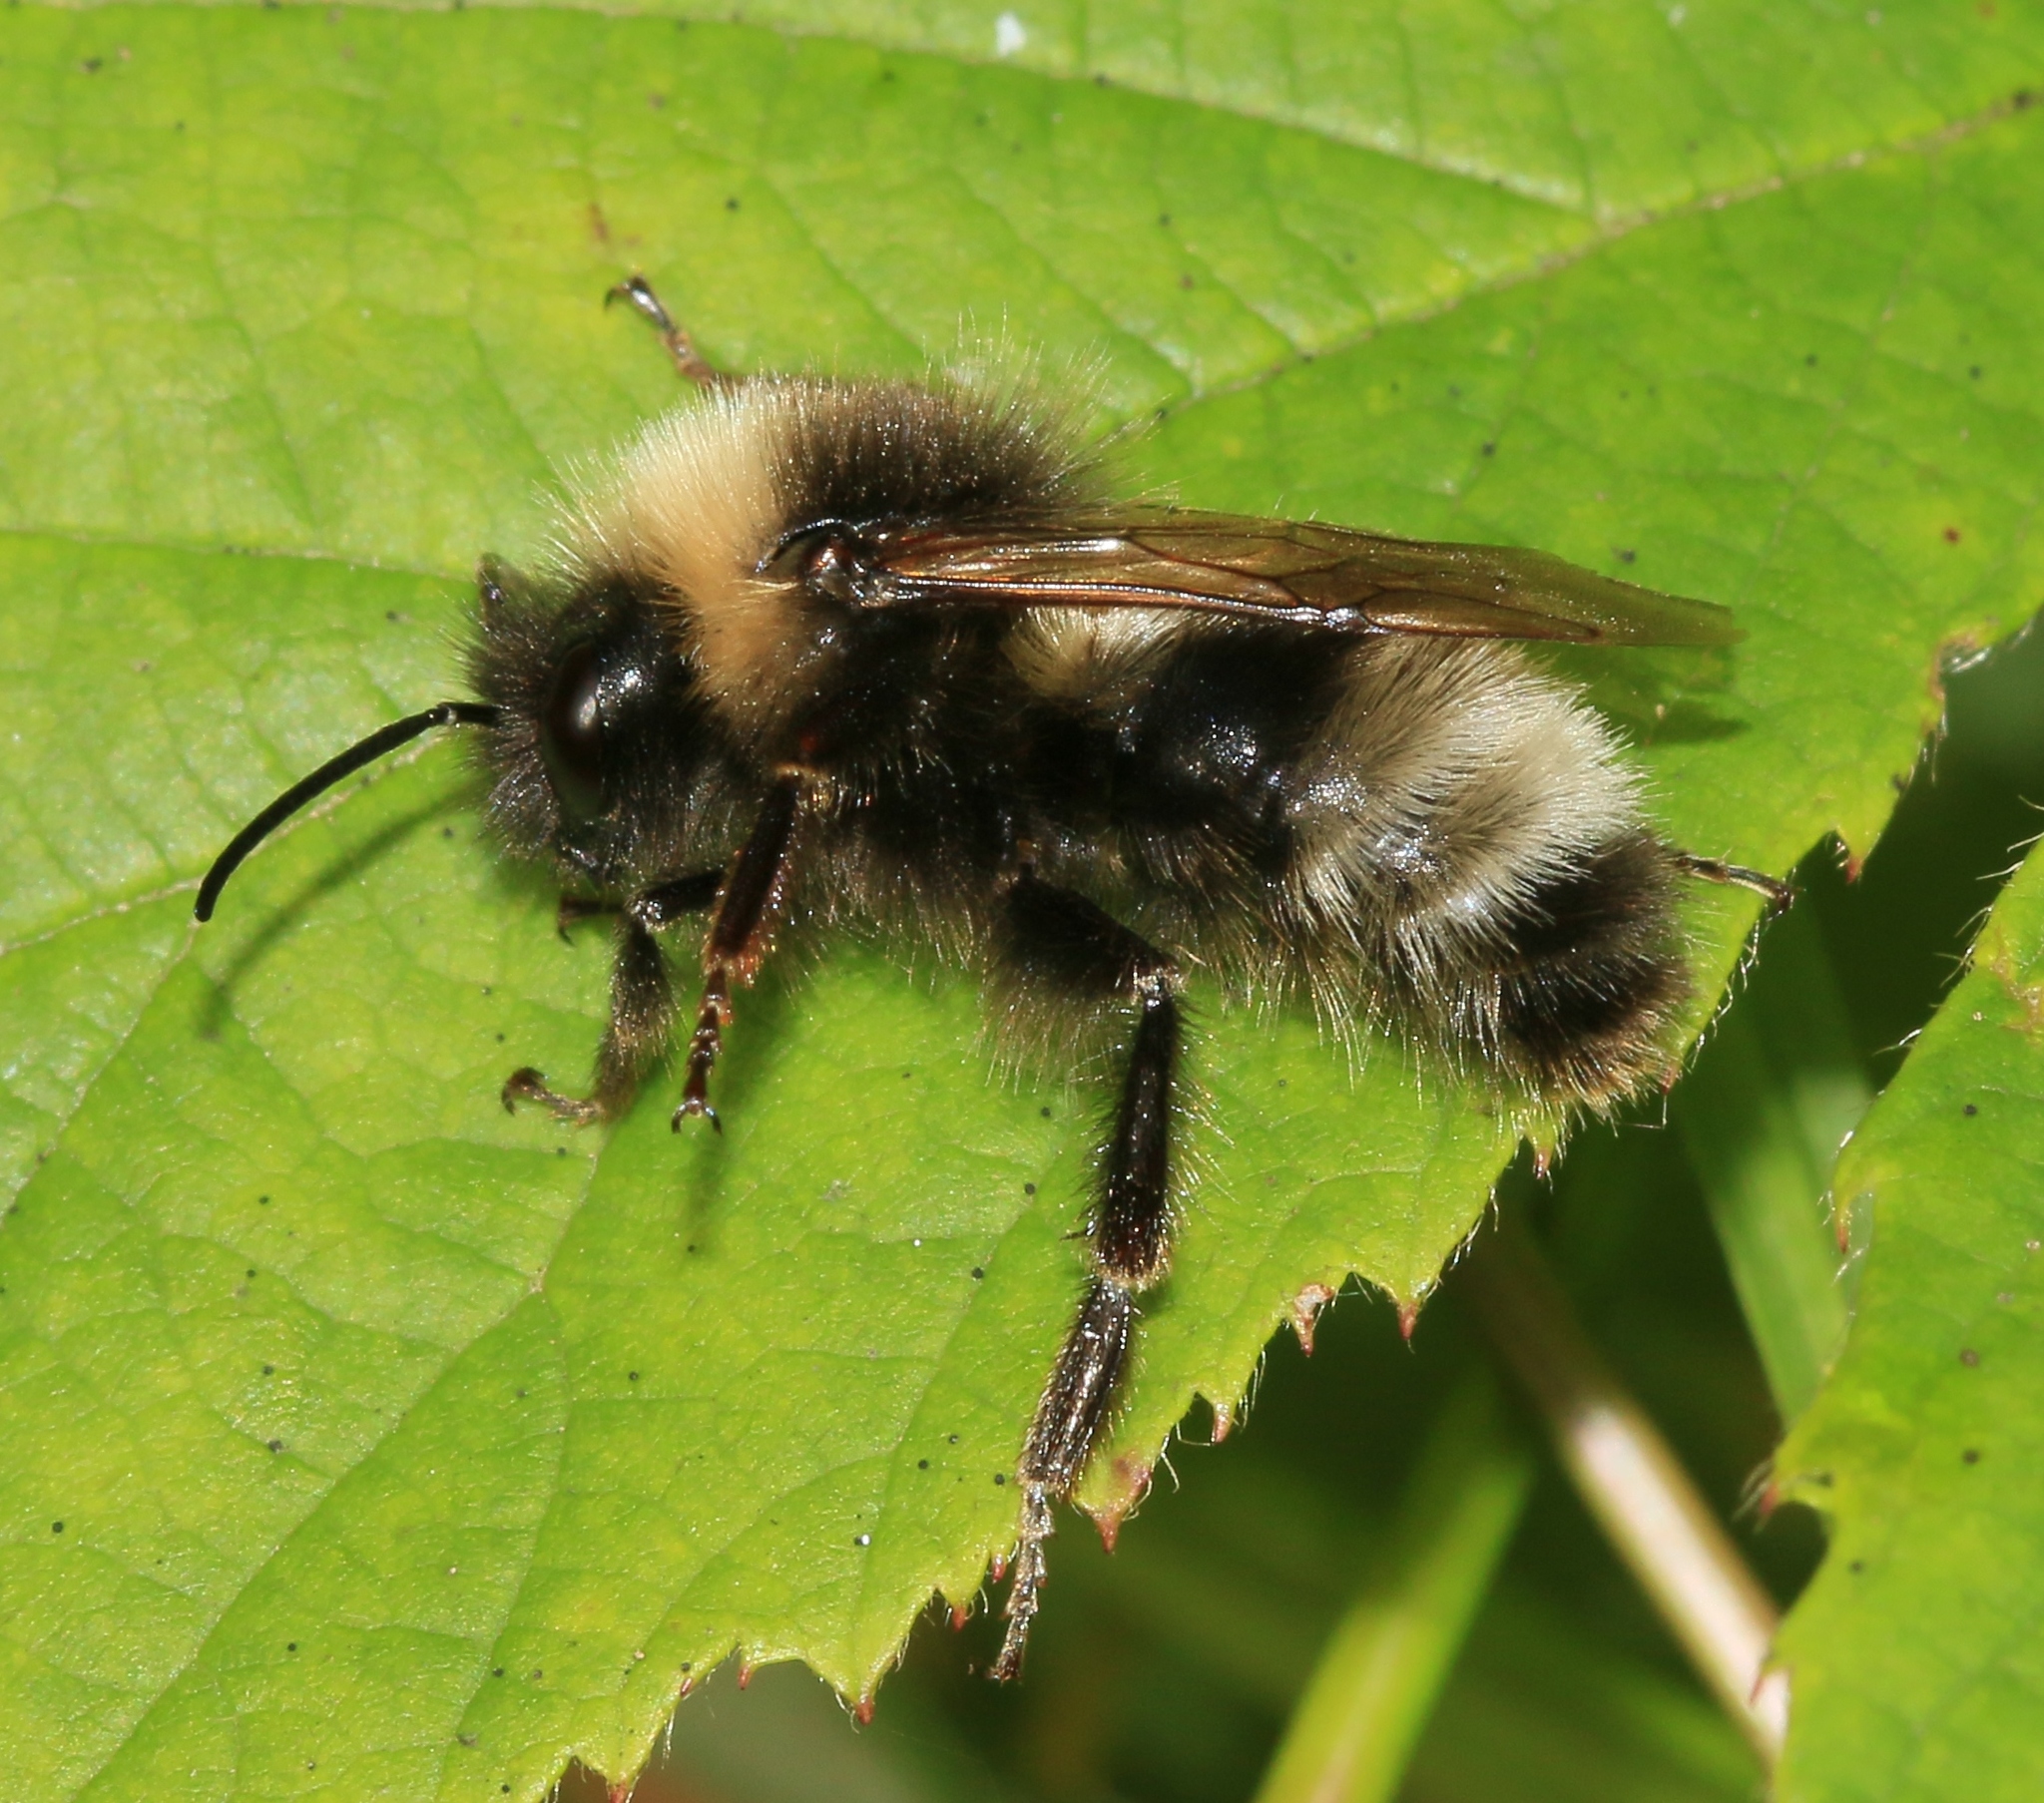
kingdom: Animalia
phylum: Arthropoda
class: Insecta
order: Hymenoptera
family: Apidae
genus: Bombus
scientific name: Bombus sylvestris
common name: Forest cuckoo bee
